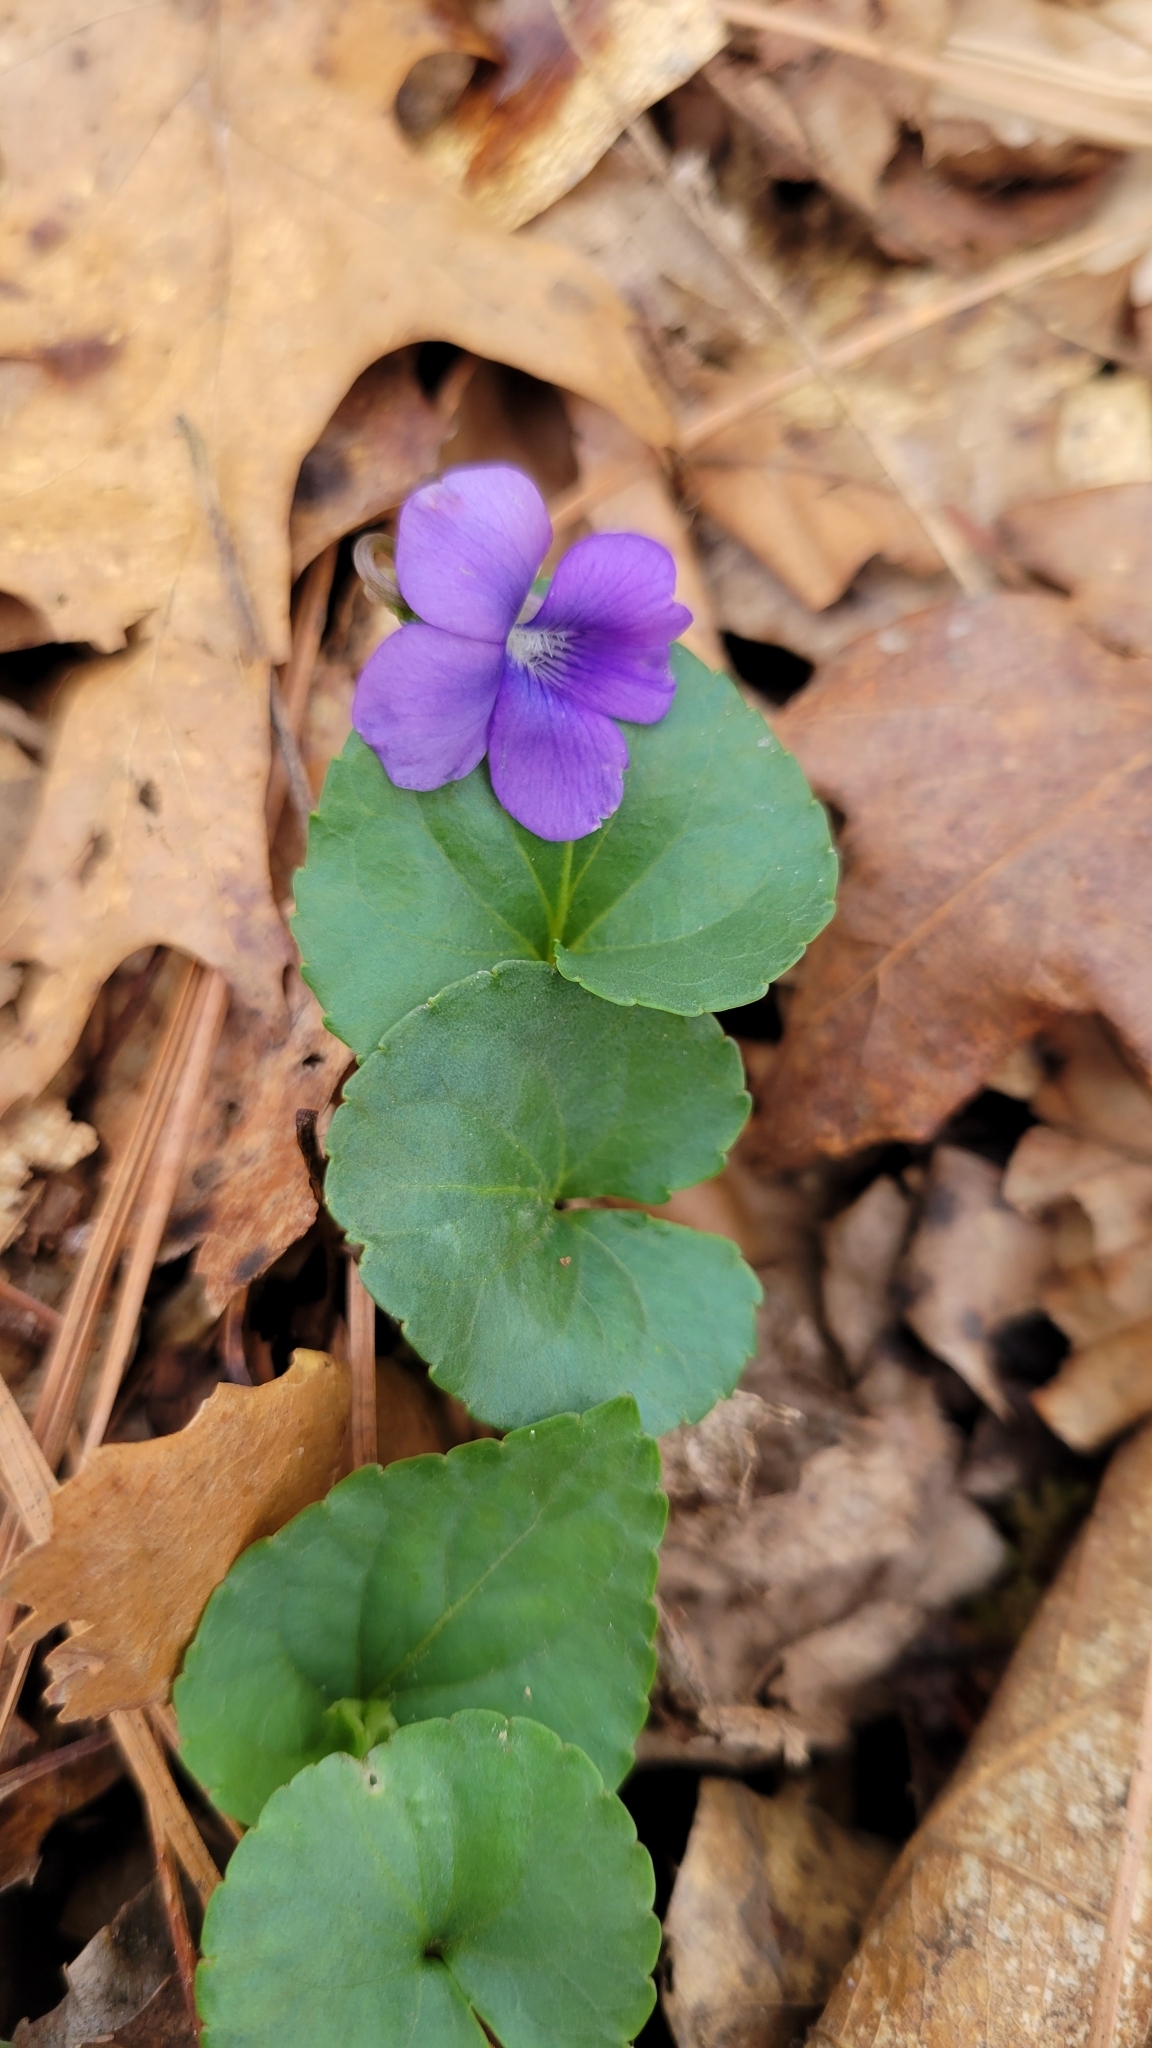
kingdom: Plantae
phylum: Tracheophyta
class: Magnoliopsida
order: Malpighiales
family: Violaceae
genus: Viola
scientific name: Viola sororia
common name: Dooryard violet
